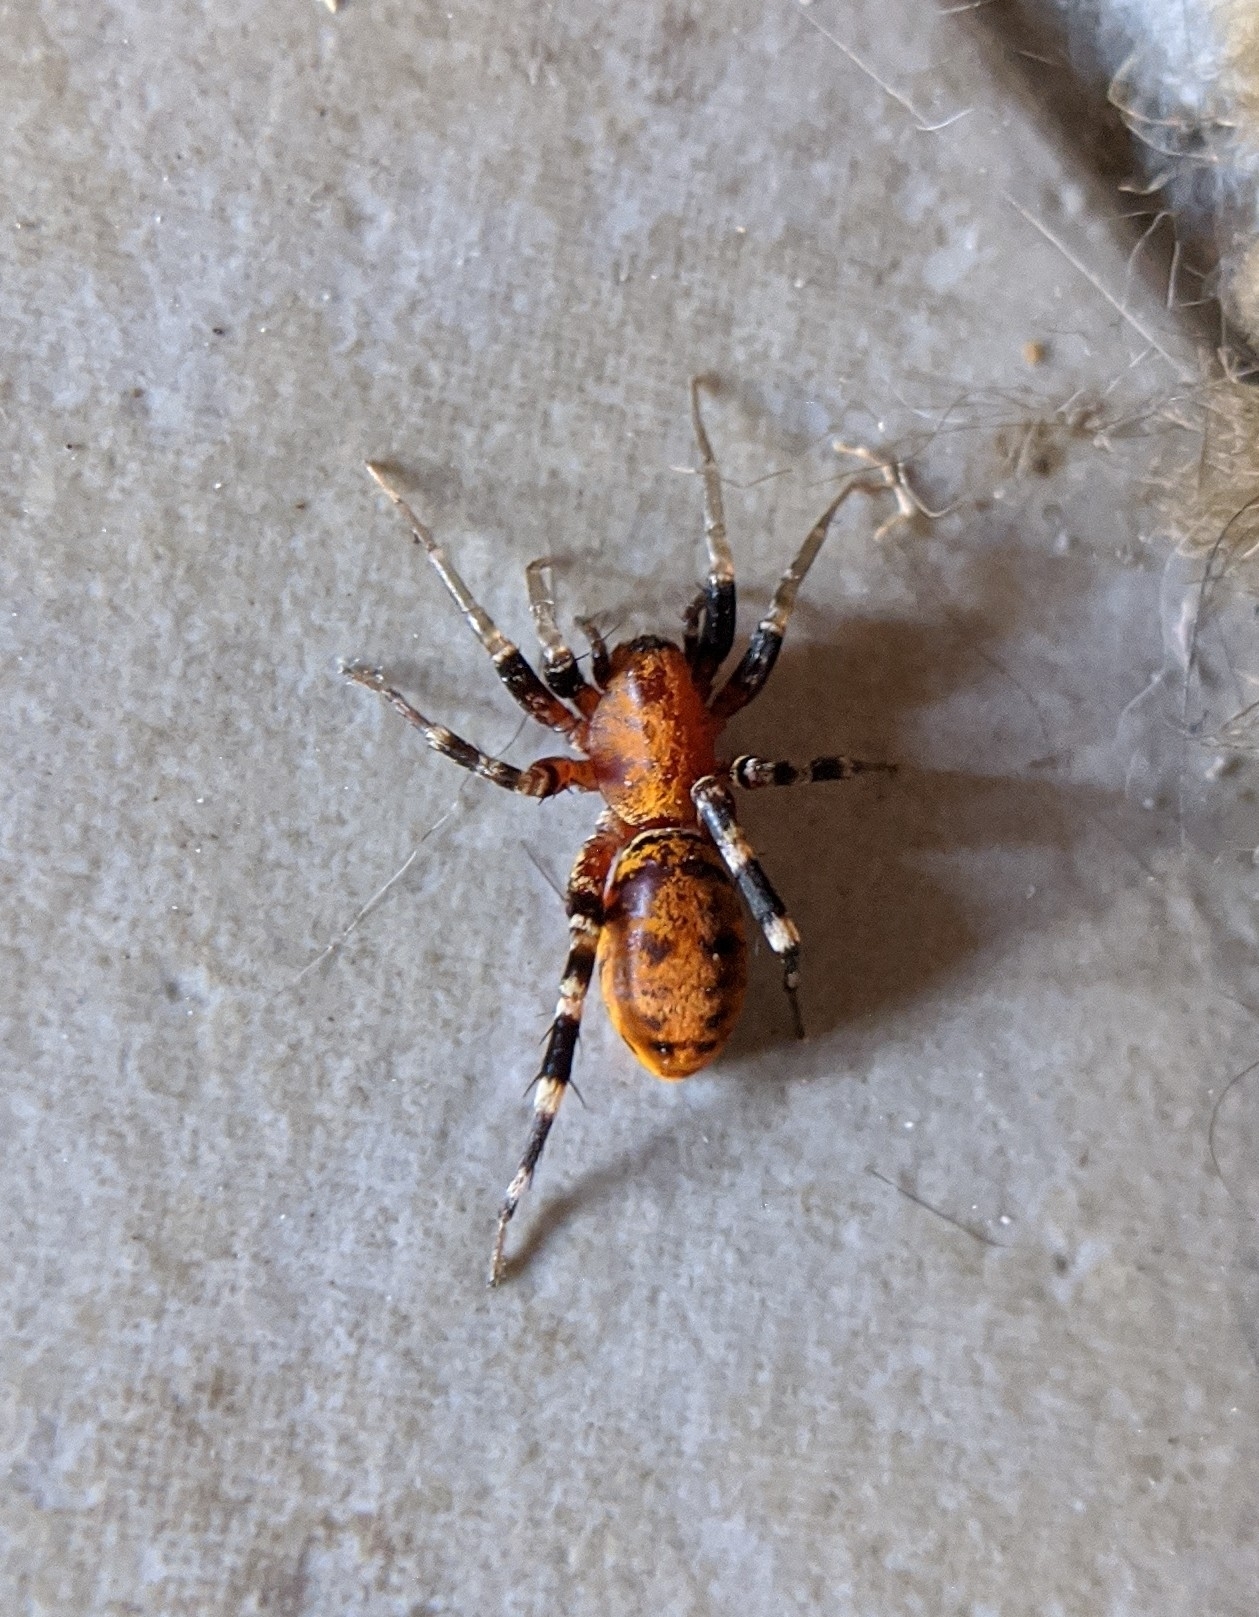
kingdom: Animalia
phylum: Arthropoda
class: Arachnida
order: Araneae
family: Corinnidae
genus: Castianeira
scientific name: Castianeira amoena
